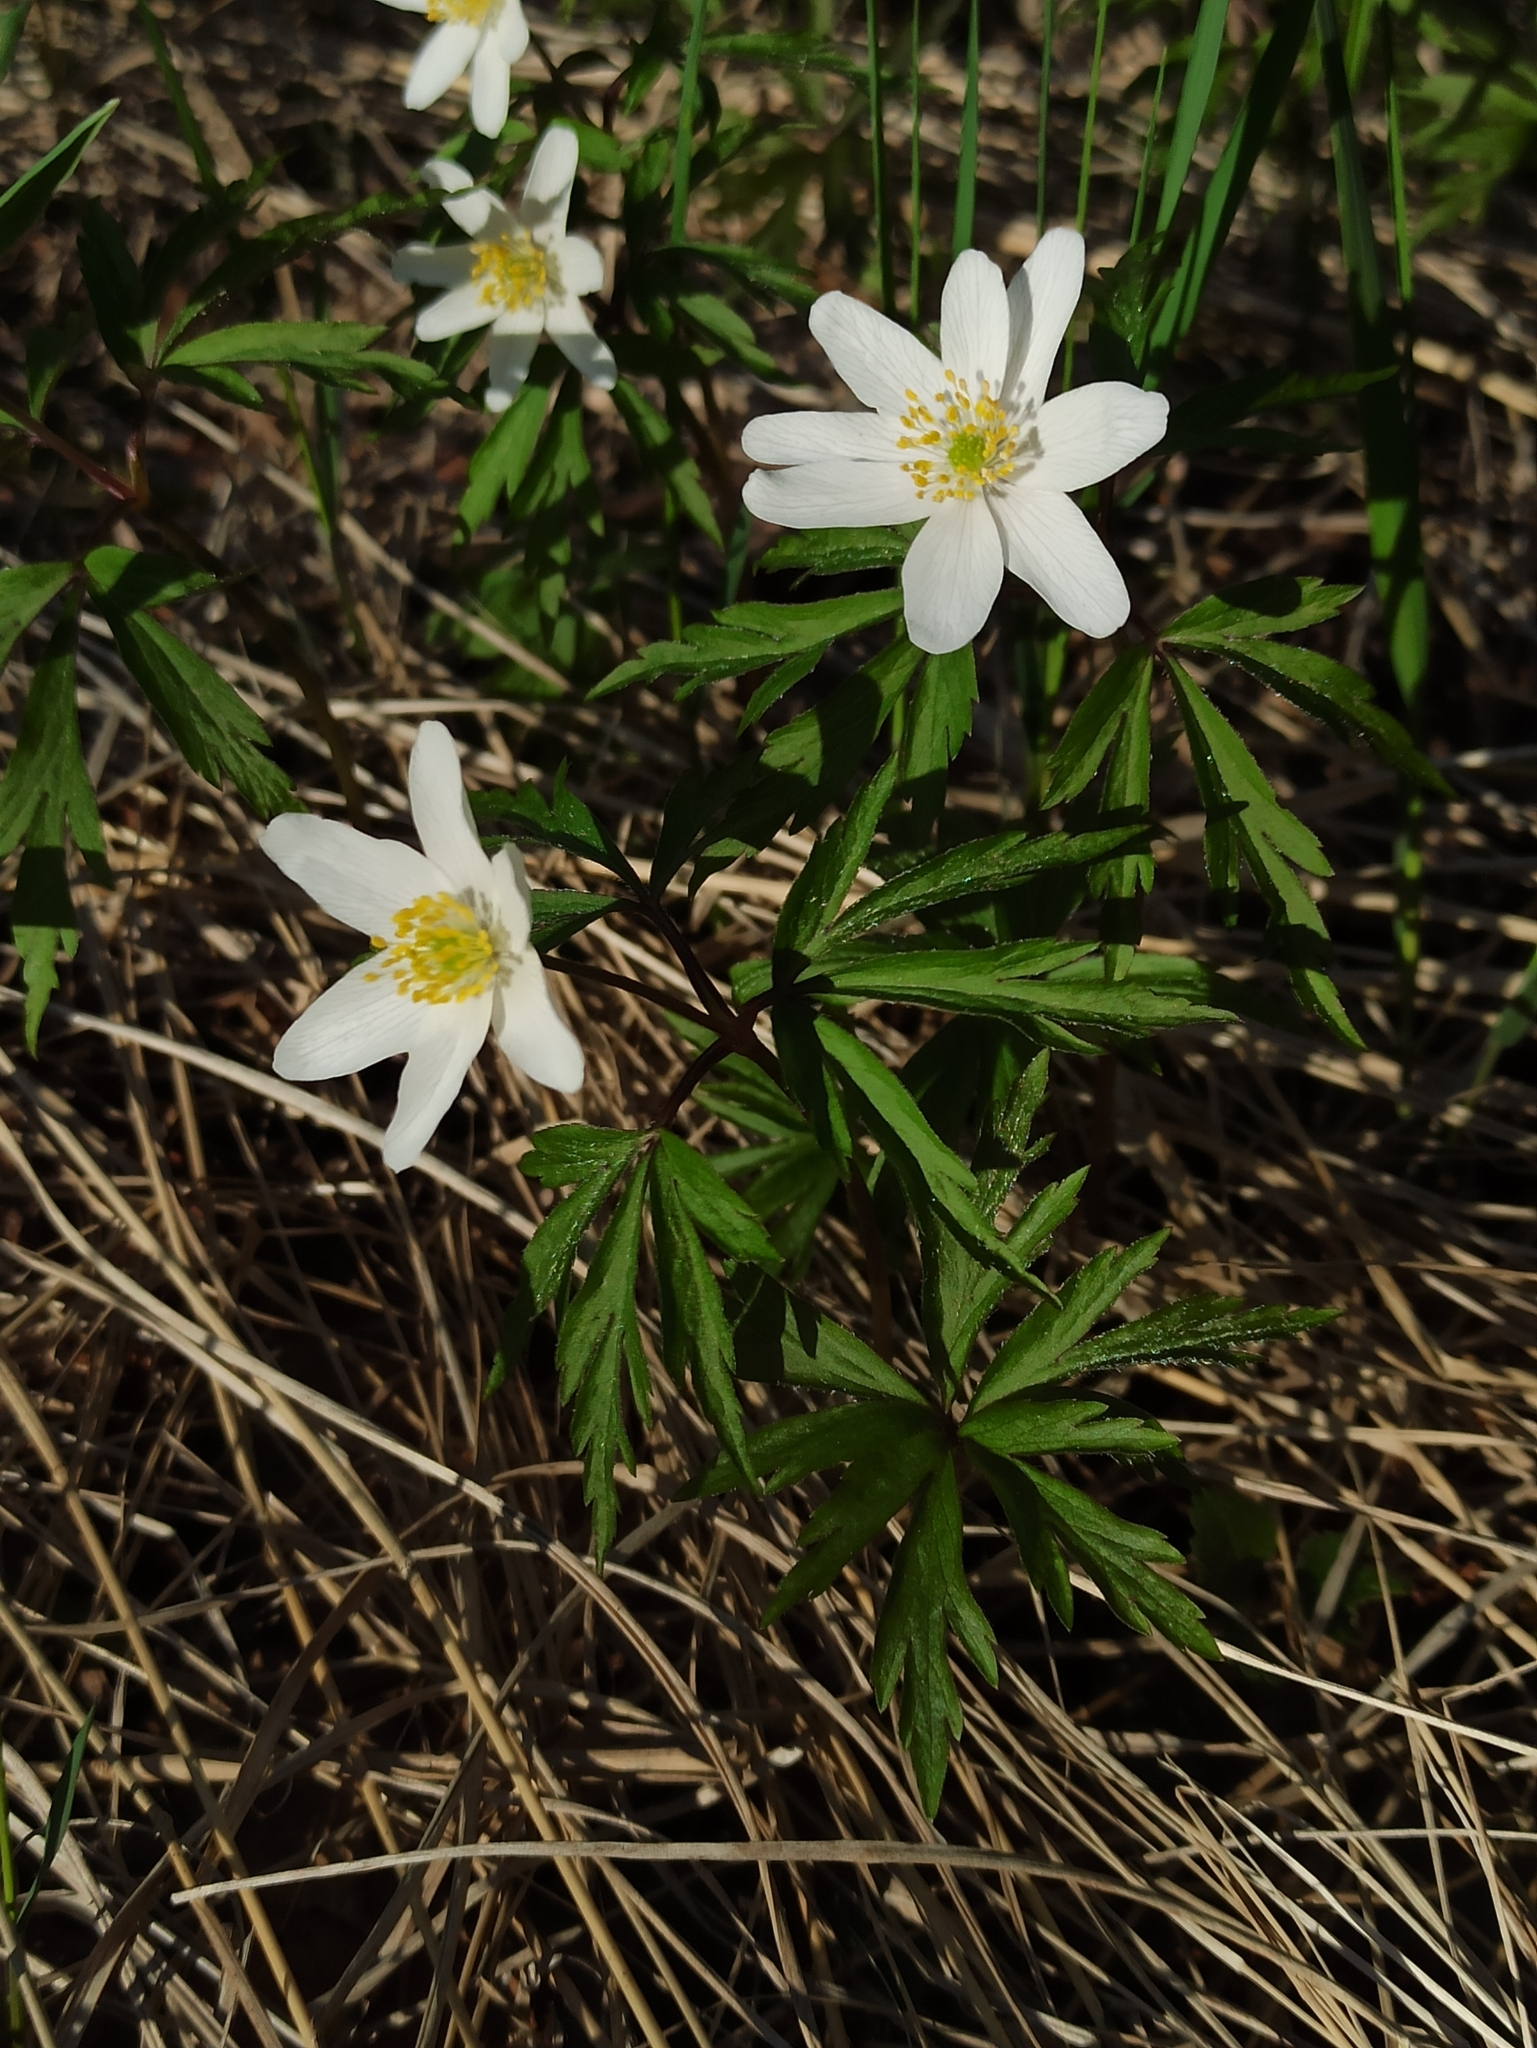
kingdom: Plantae
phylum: Tracheophyta
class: Magnoliopsida
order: Ranunculales
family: Ranunculaceae
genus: Anemone
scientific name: Anemone nemorosa
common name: Wood anemone
